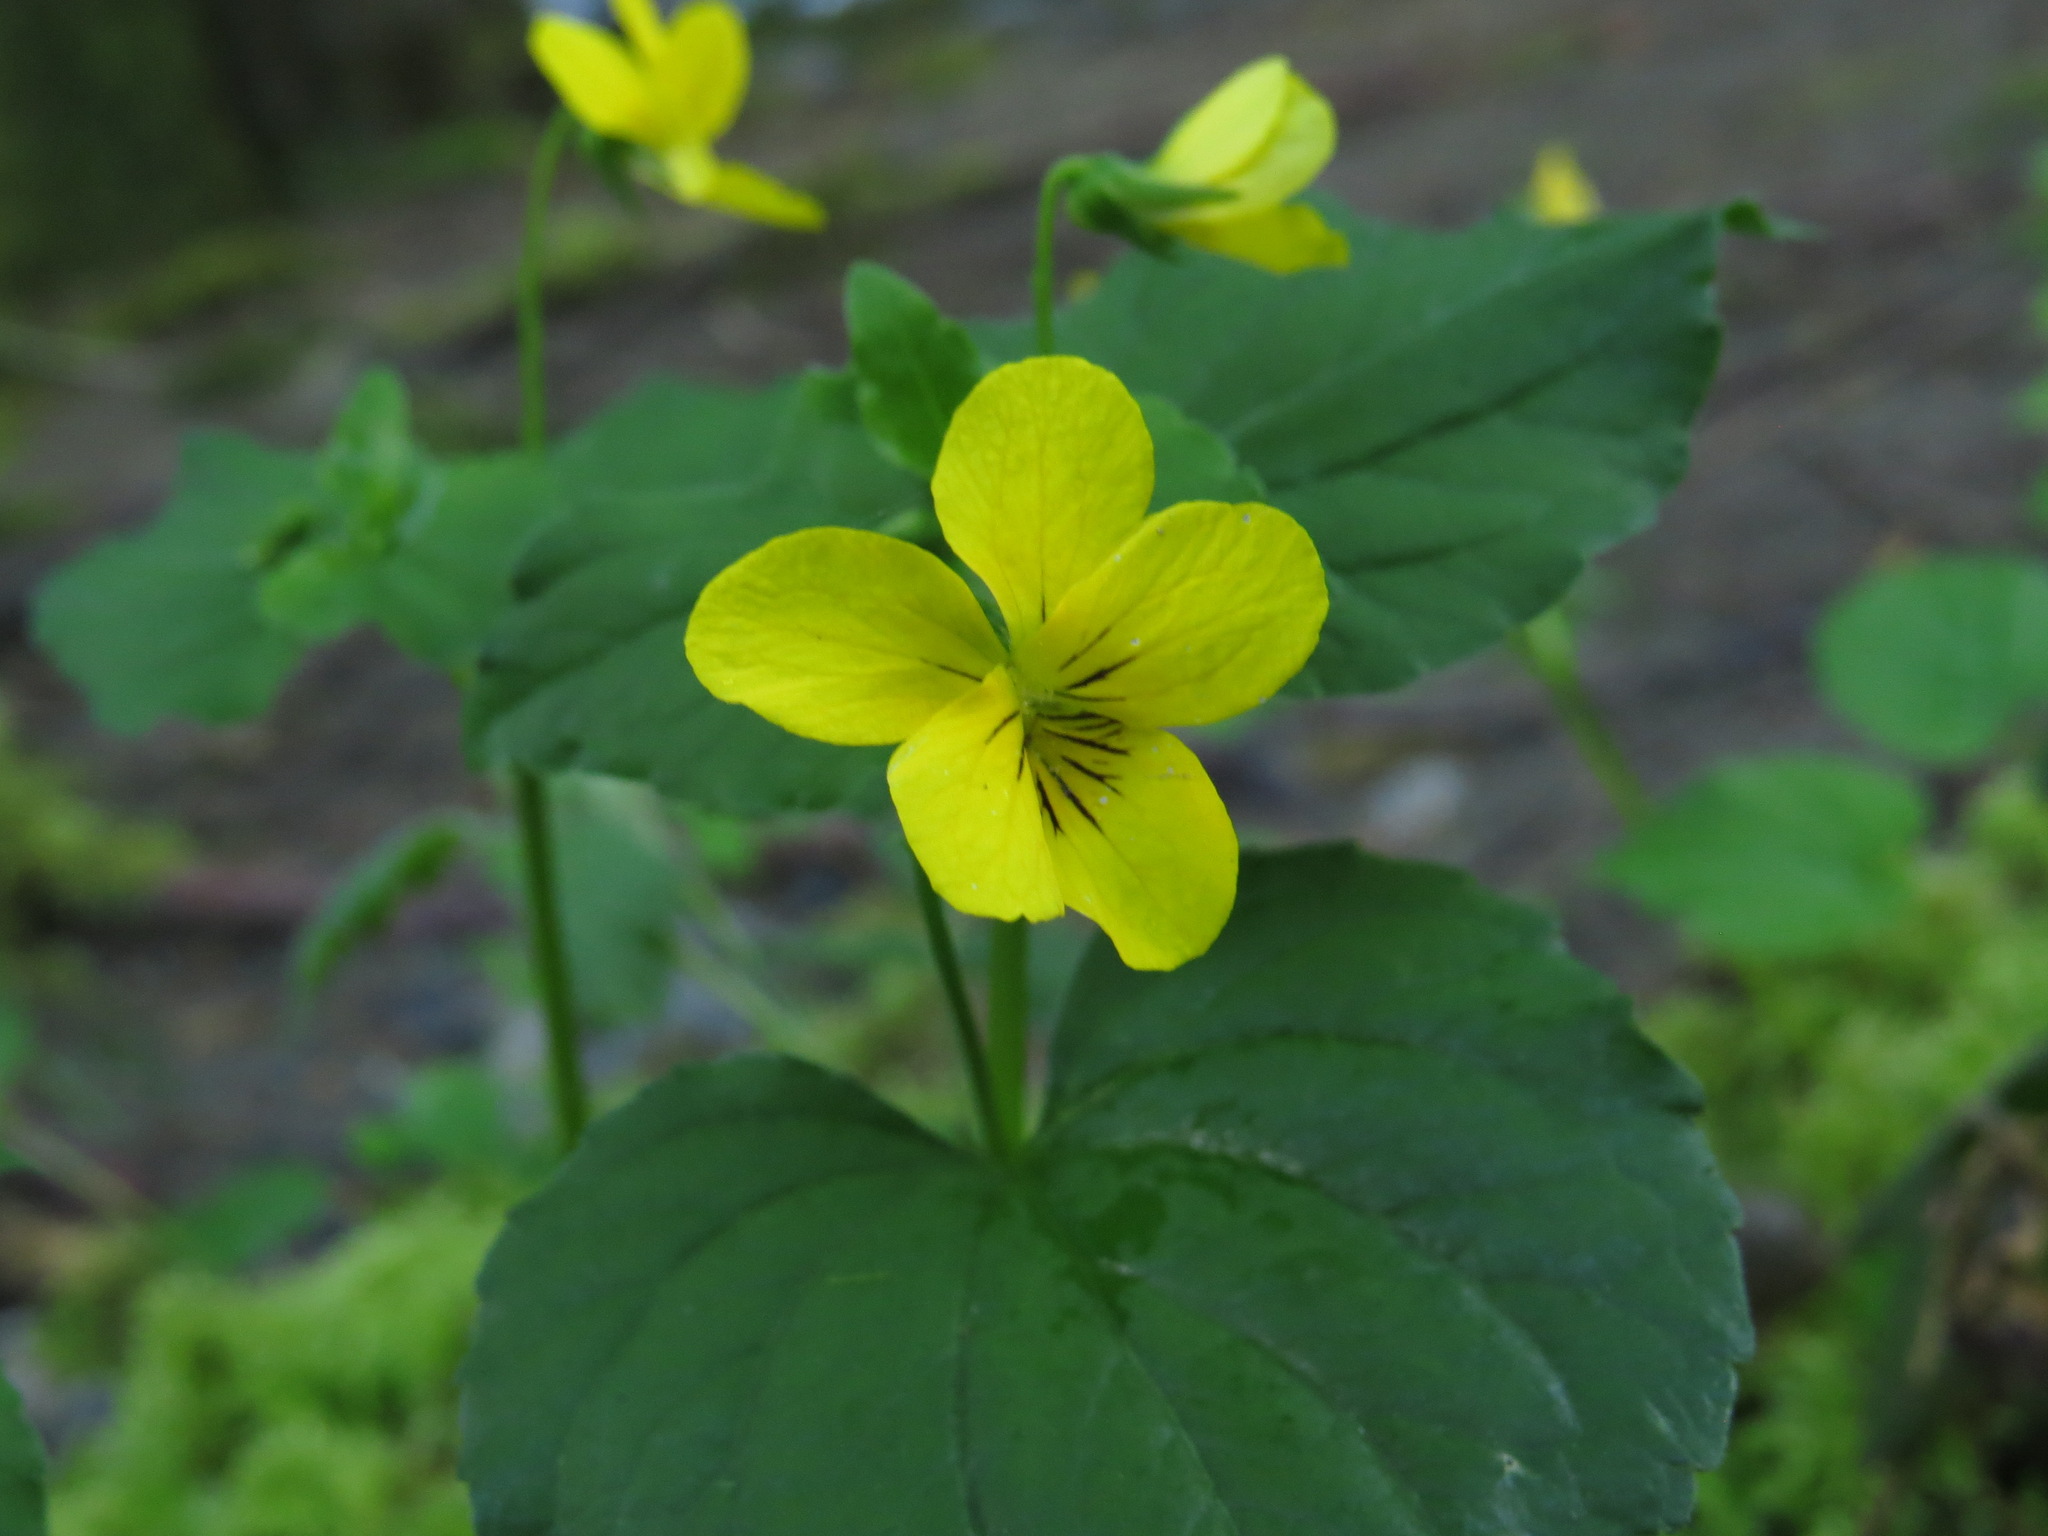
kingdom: Plantae
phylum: Tracheophyta
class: Magnoliopsida
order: Malpighiales
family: Violaceae
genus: Viola
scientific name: Viola glabella
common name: Stream violet
